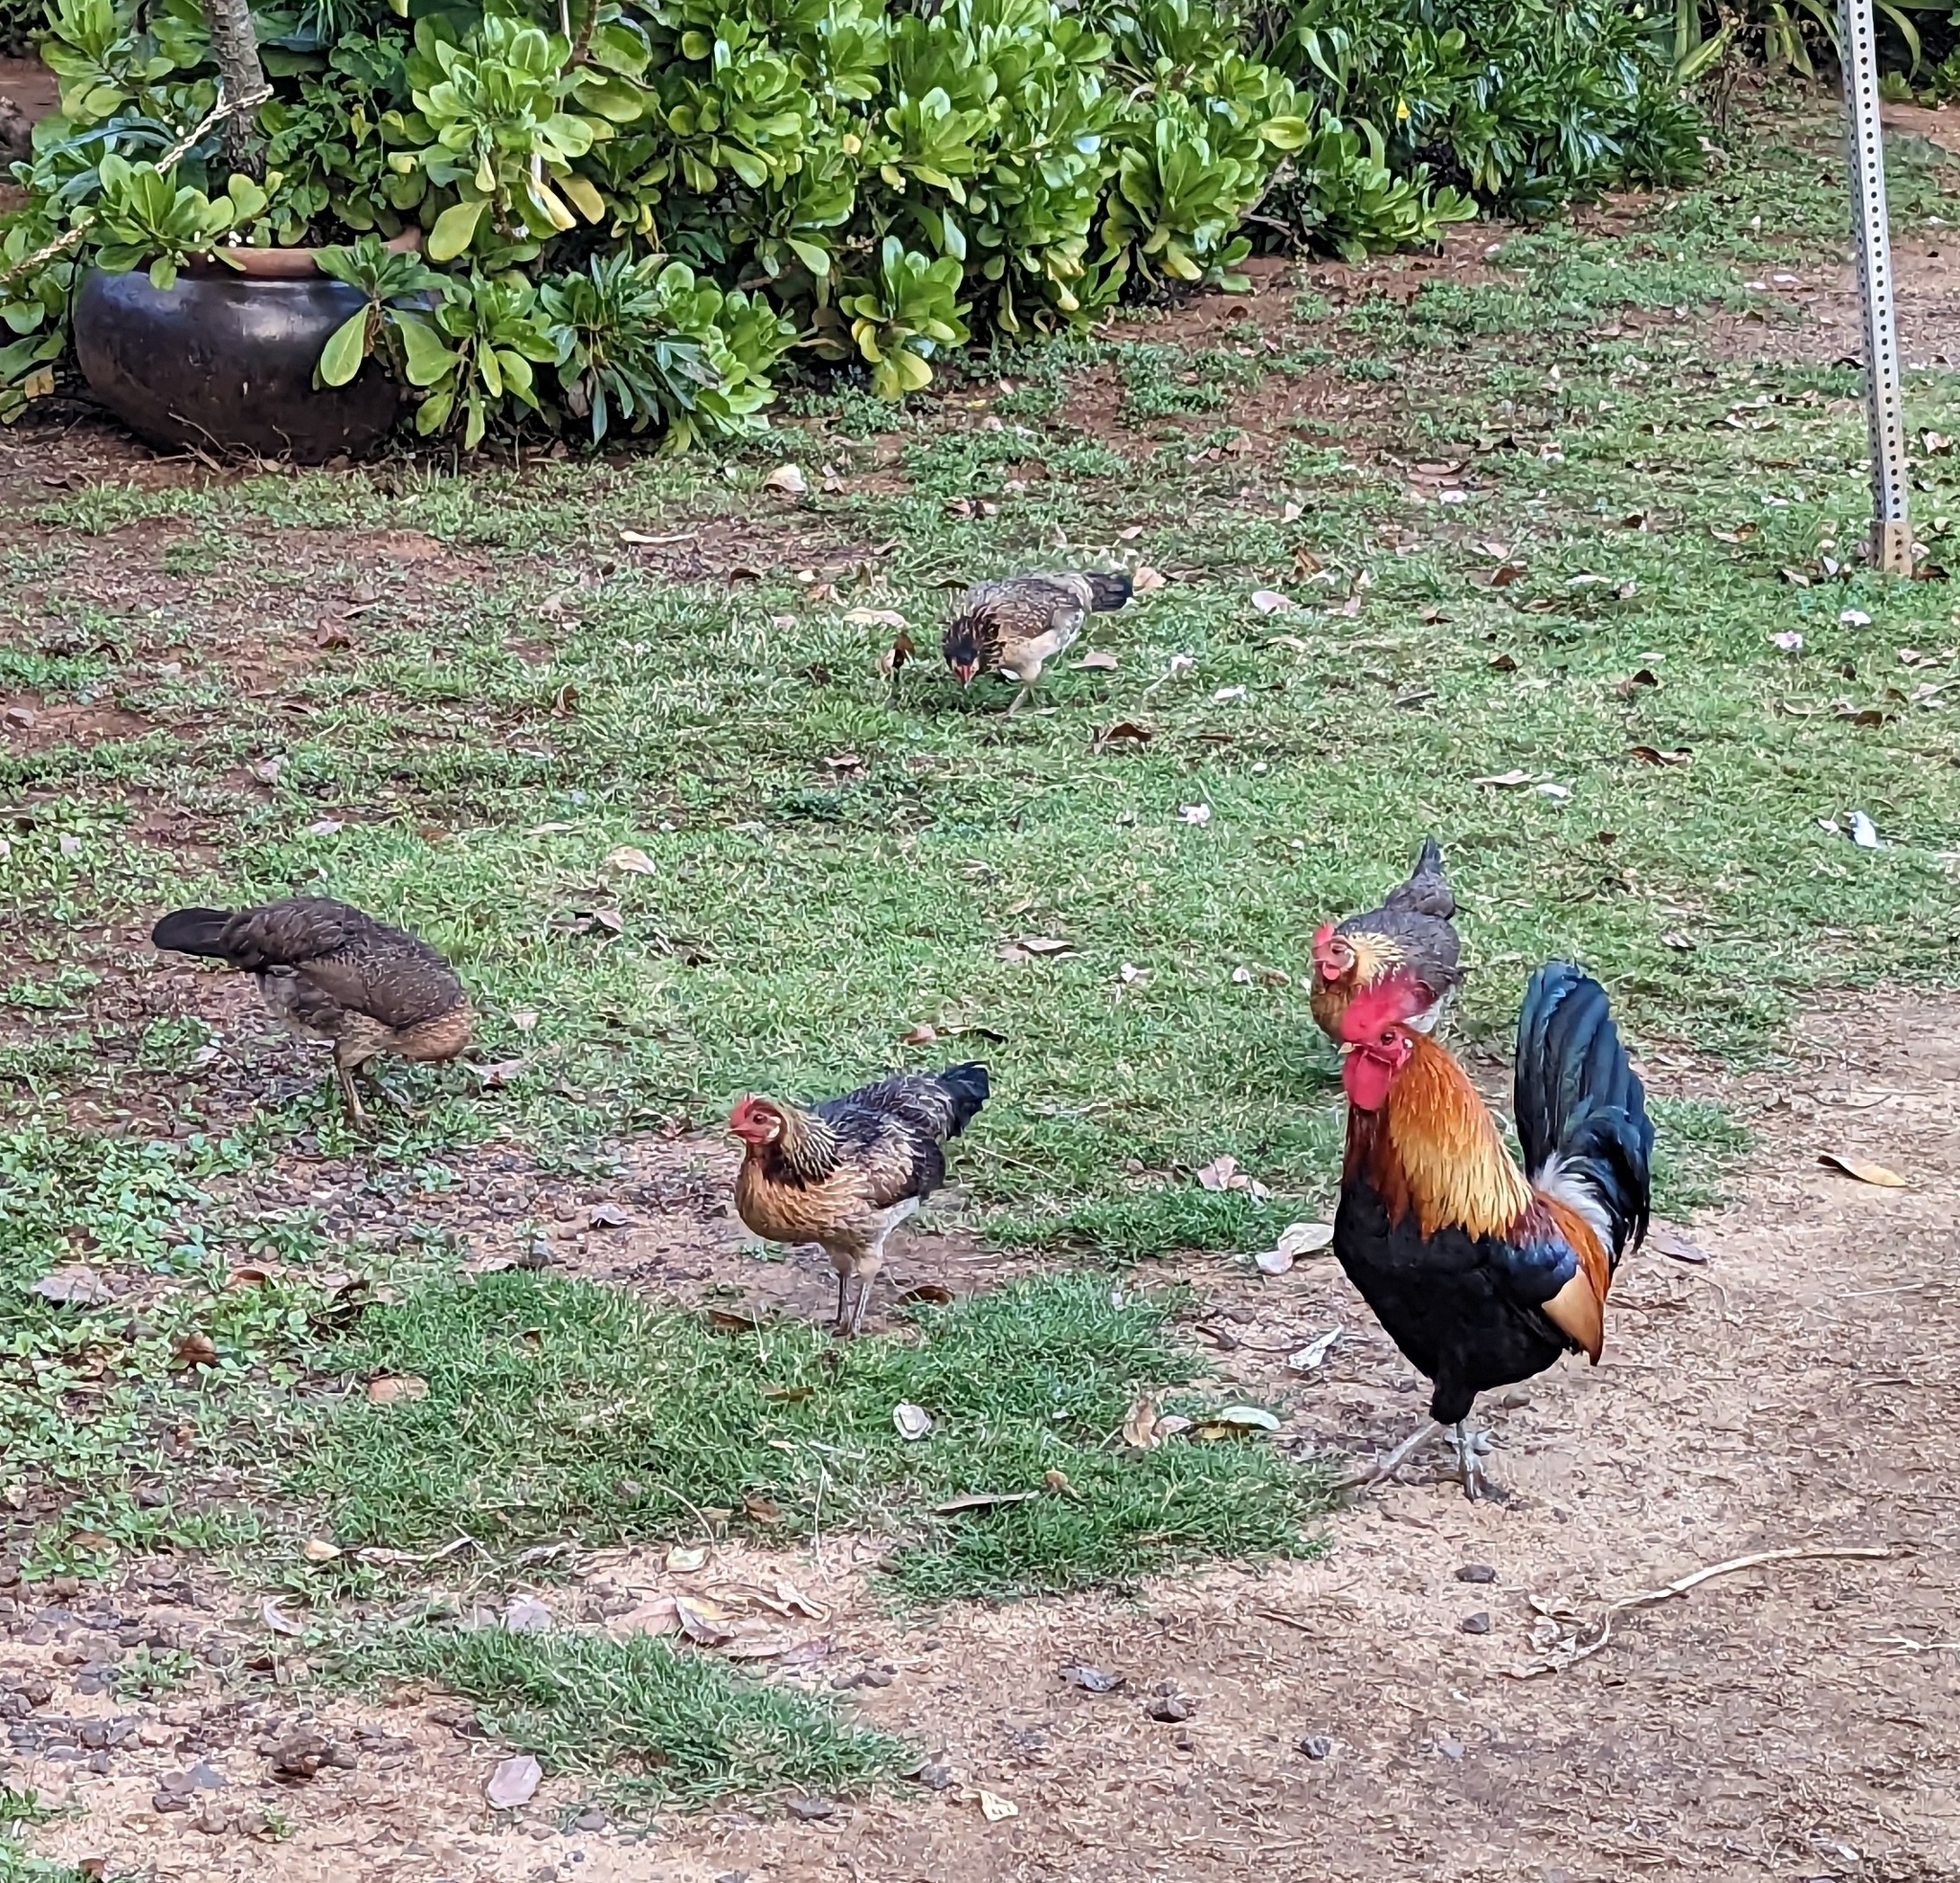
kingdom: Animalia
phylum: Chordata
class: Aves
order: Galliformes
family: Phasianidae
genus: Gallus
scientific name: Gallus gallus
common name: Red junglefowl
